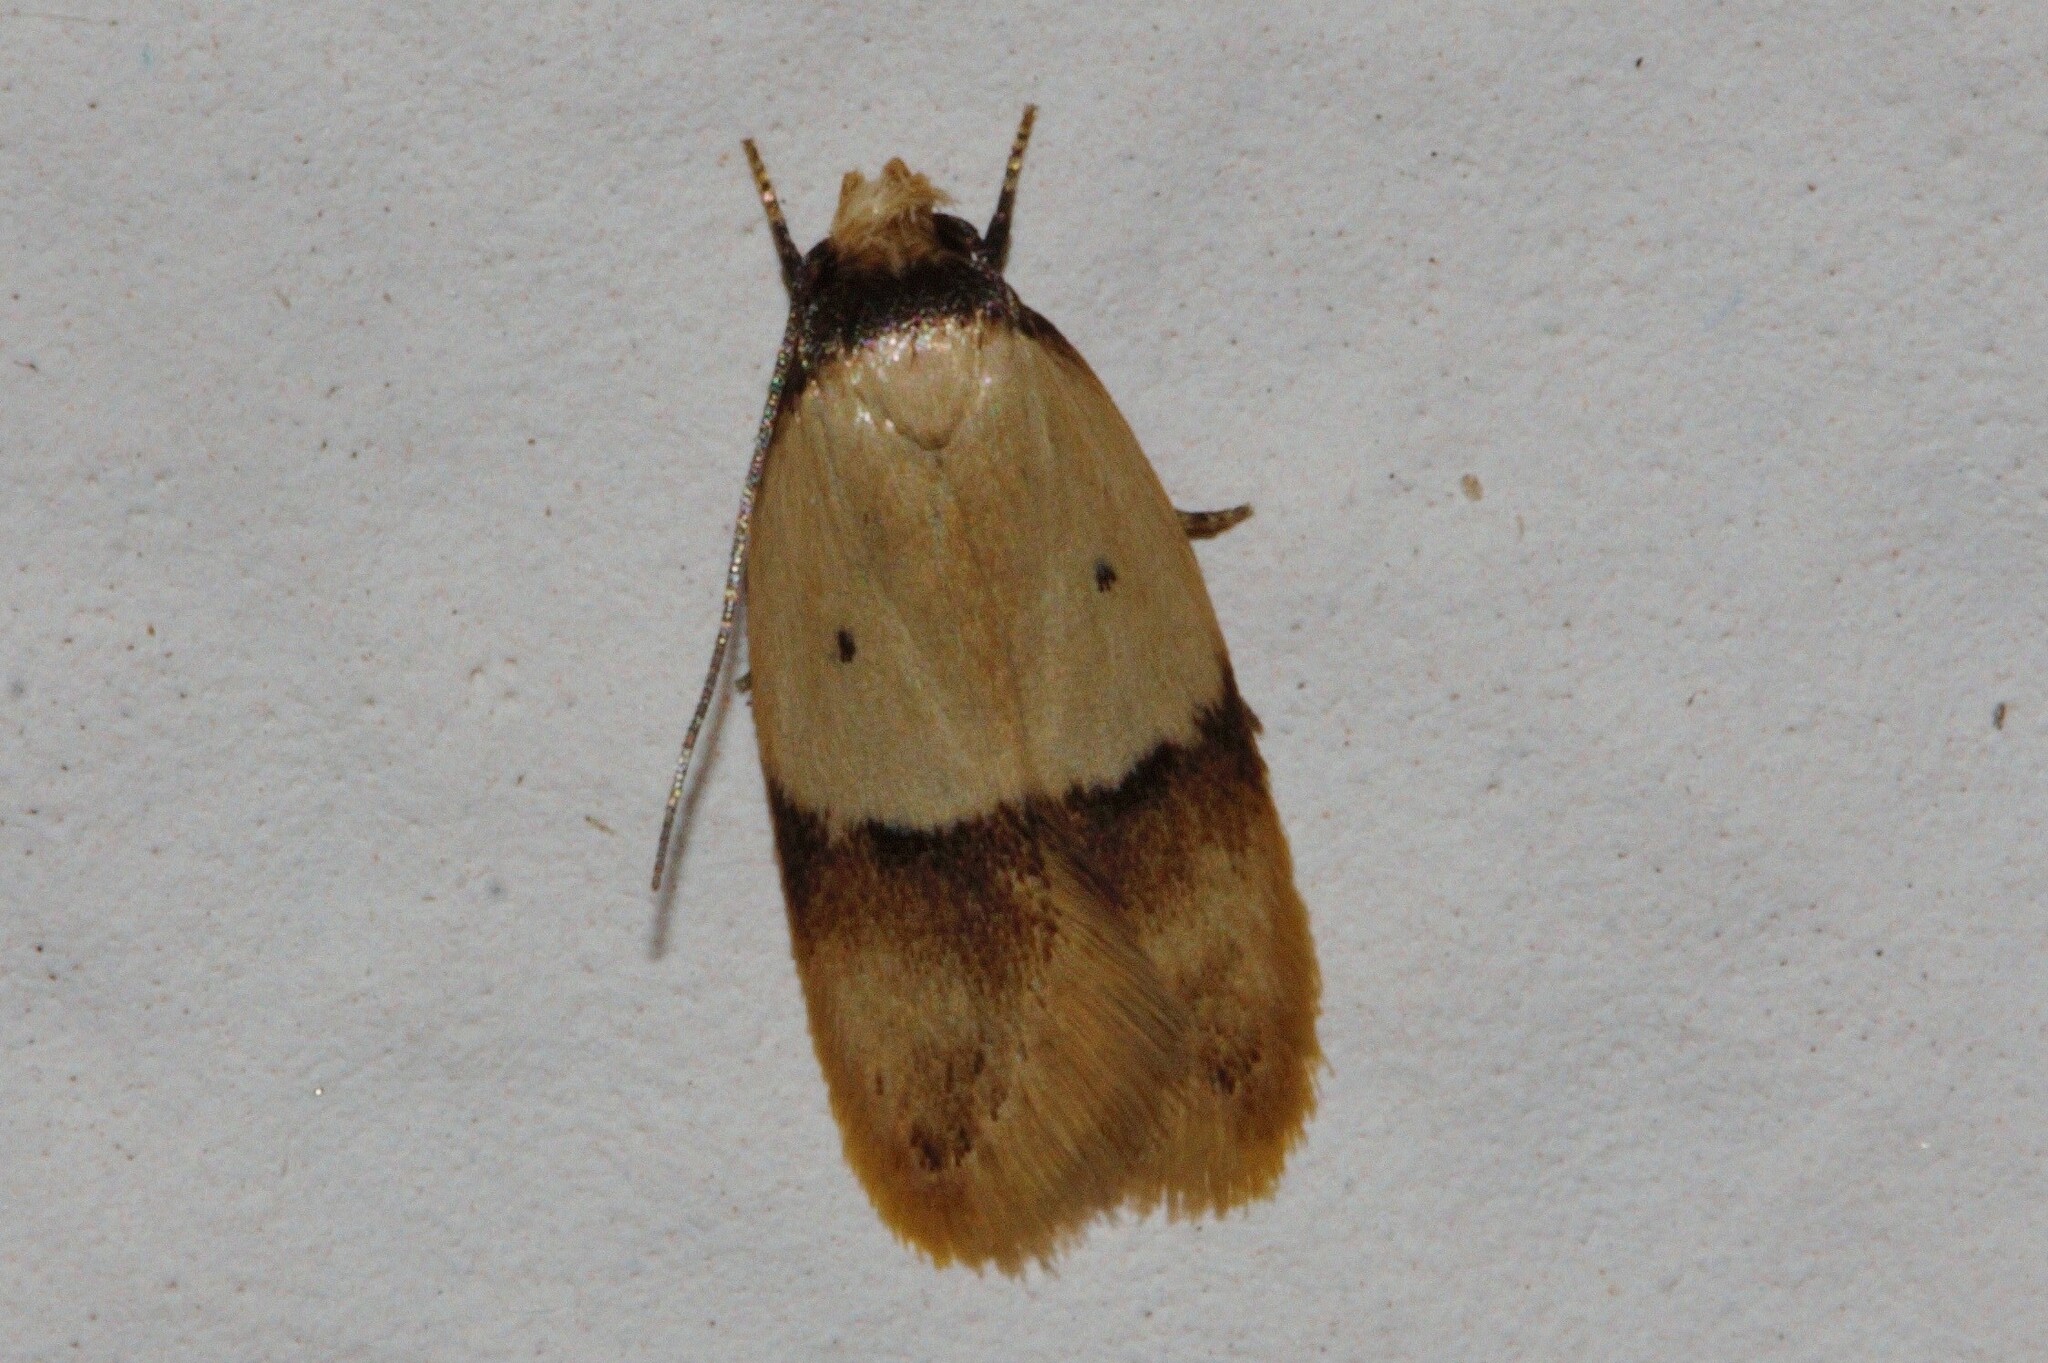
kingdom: Animalia
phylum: Arthropoda
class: Insecta
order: Lepidoptera
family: Peleopodidae
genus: Odites
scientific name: Odites natalensis
